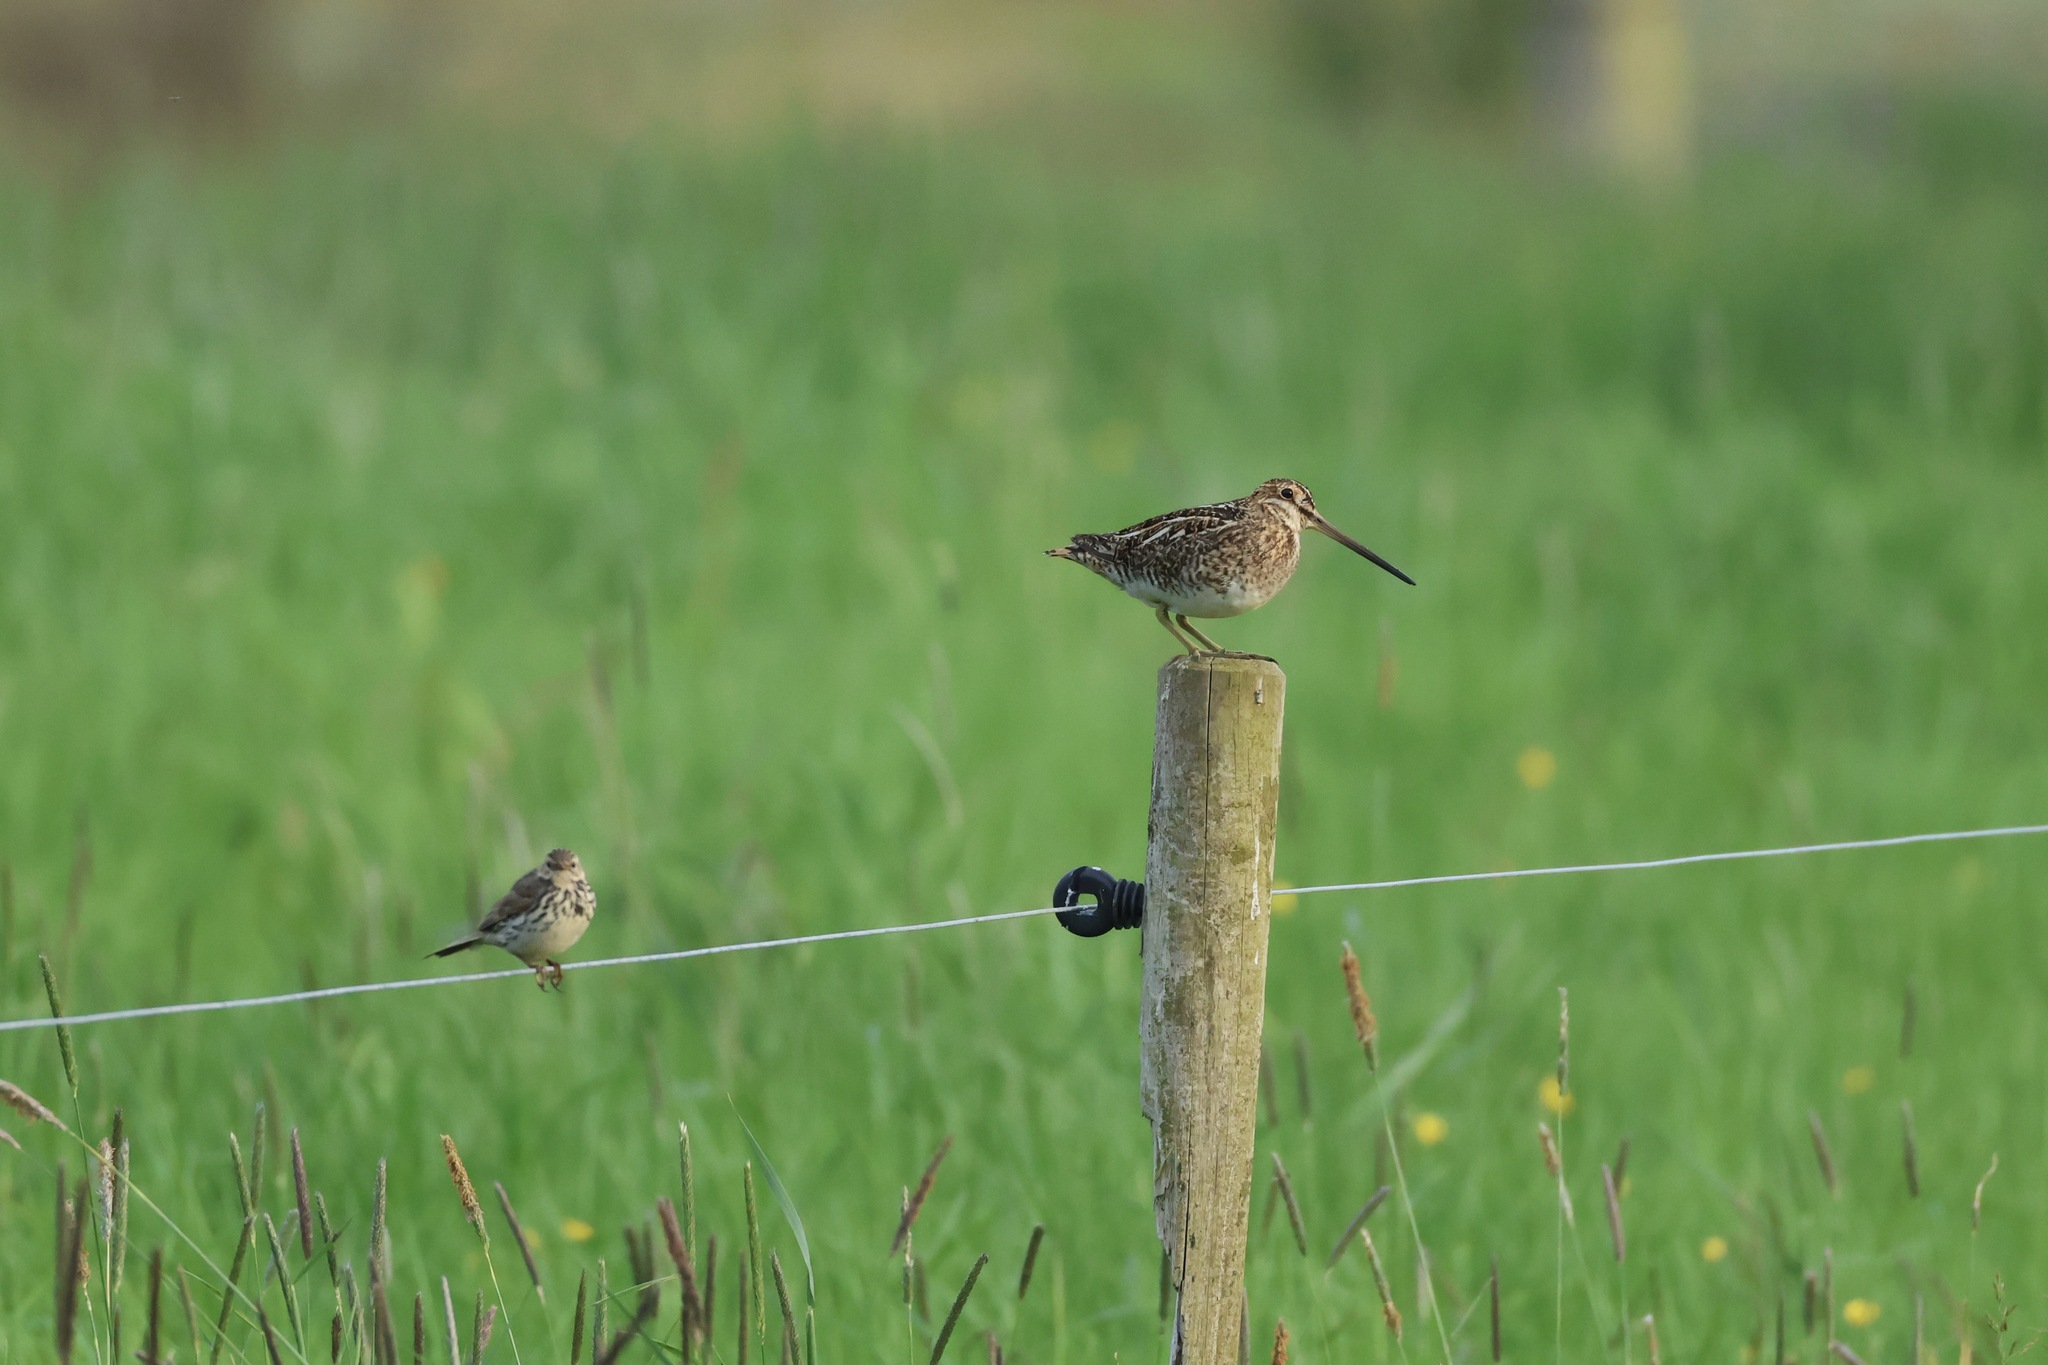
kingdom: Animalia
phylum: Chordata
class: Aves
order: Charadriiformes
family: Scolopacidae
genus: Gallinago
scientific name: Gallinago gallinago
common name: Common snipe
